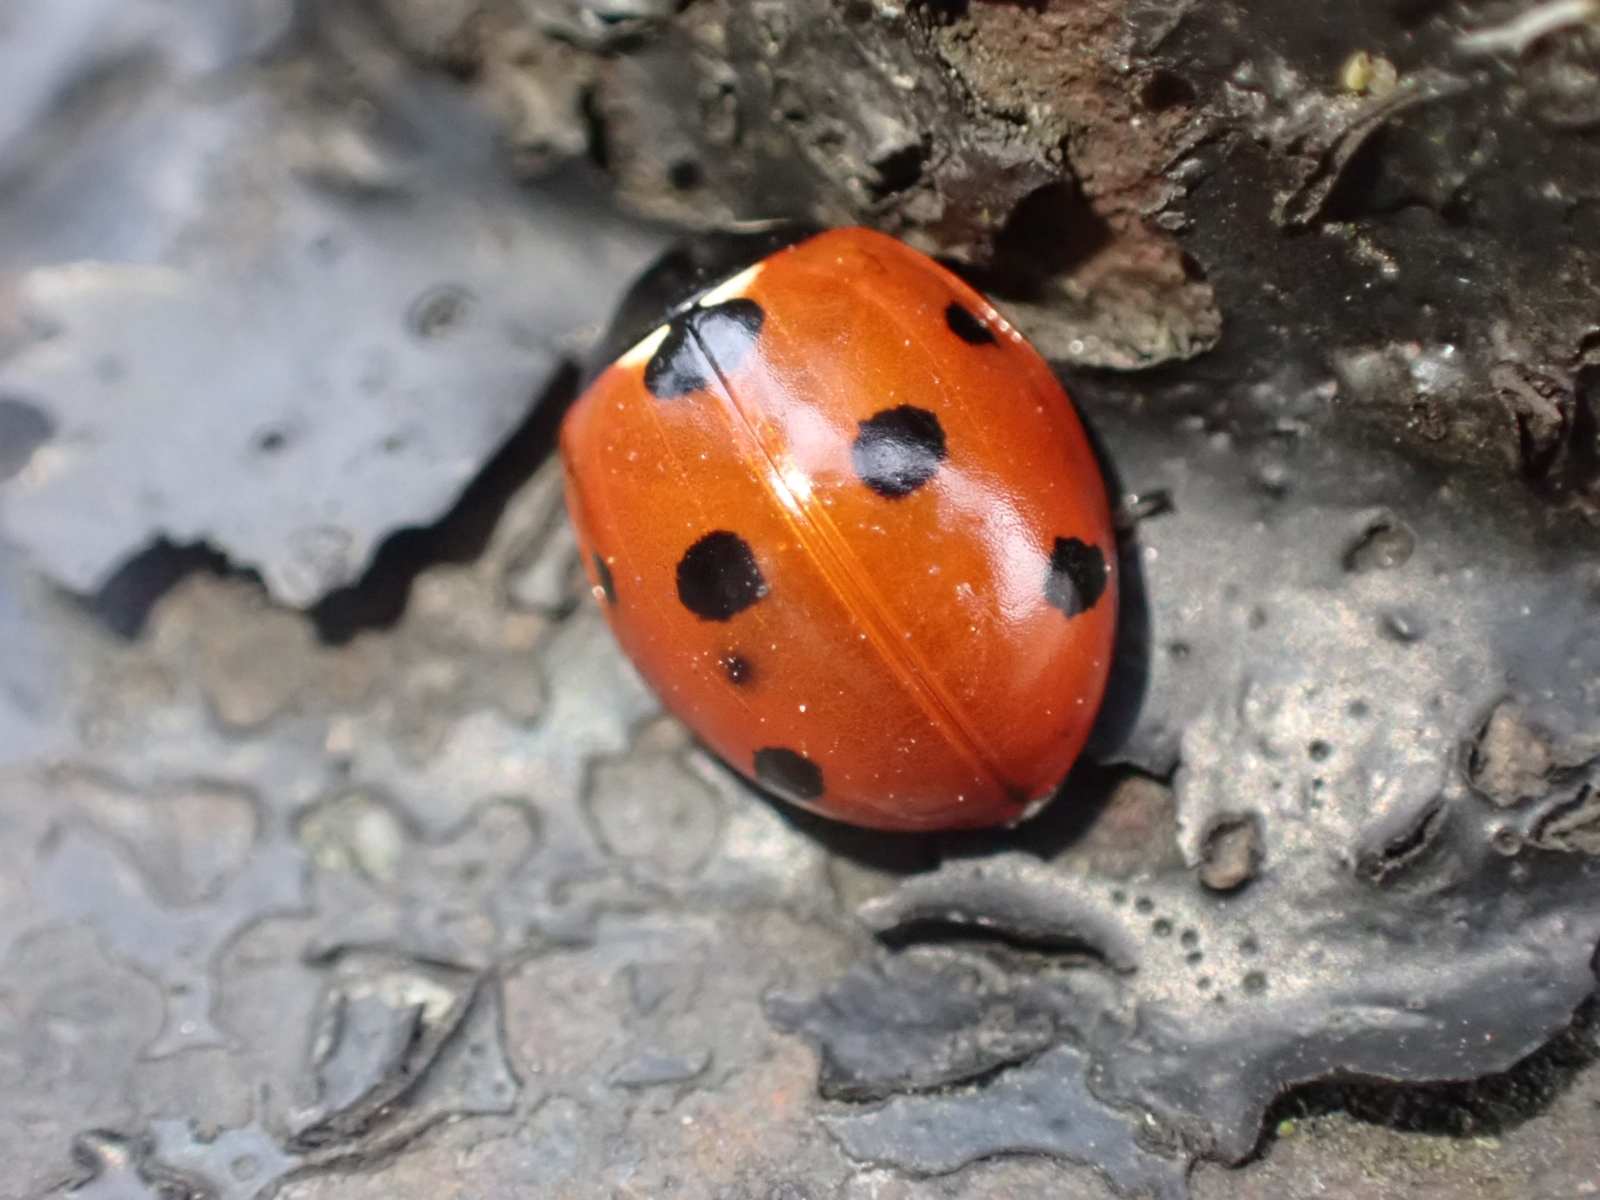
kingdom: Animalia
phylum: Arthropoda
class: Insecta
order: Coleoptera
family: Coccinellidae
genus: Coccinella
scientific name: Coccinella septempunctata
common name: Sevenspotted lady beetle
